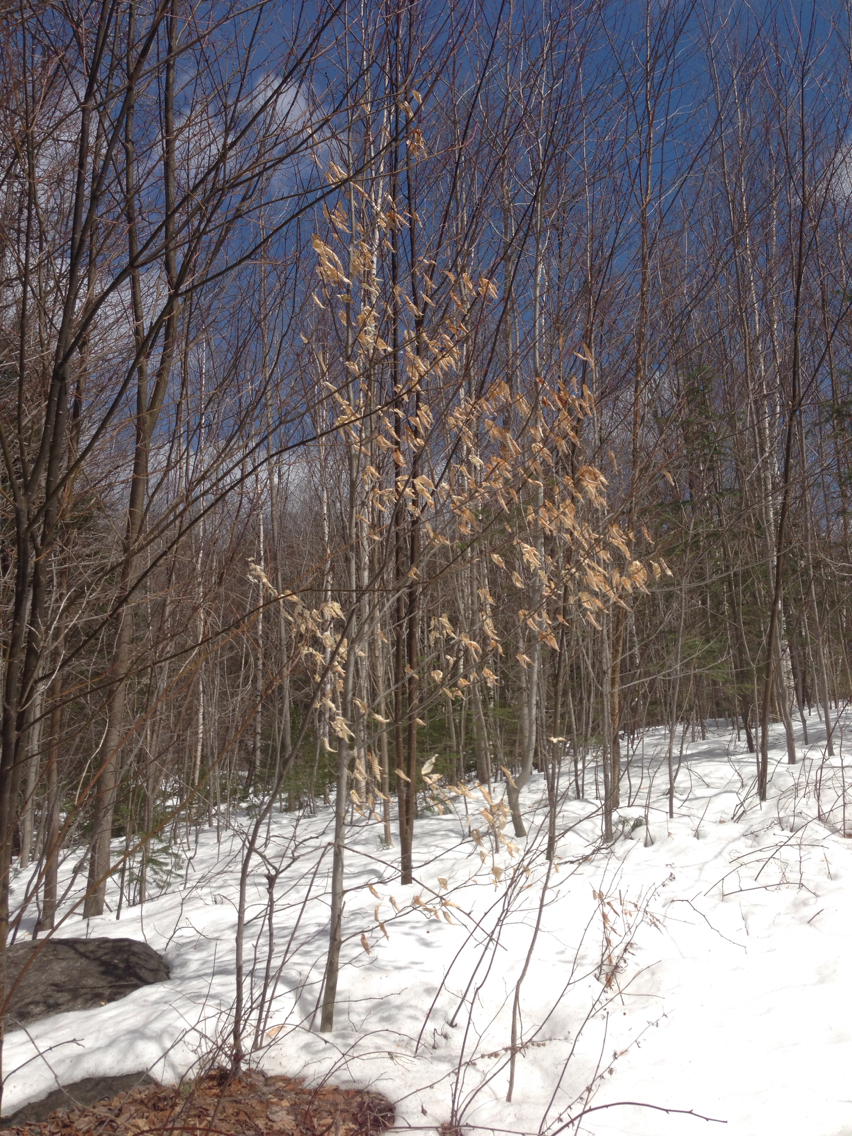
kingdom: Plantae
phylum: Tracheophyta
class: Magnoliopsida
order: Fagales
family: Fagaceae
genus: Fagus
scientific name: Fagus grandifolia
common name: American beech
